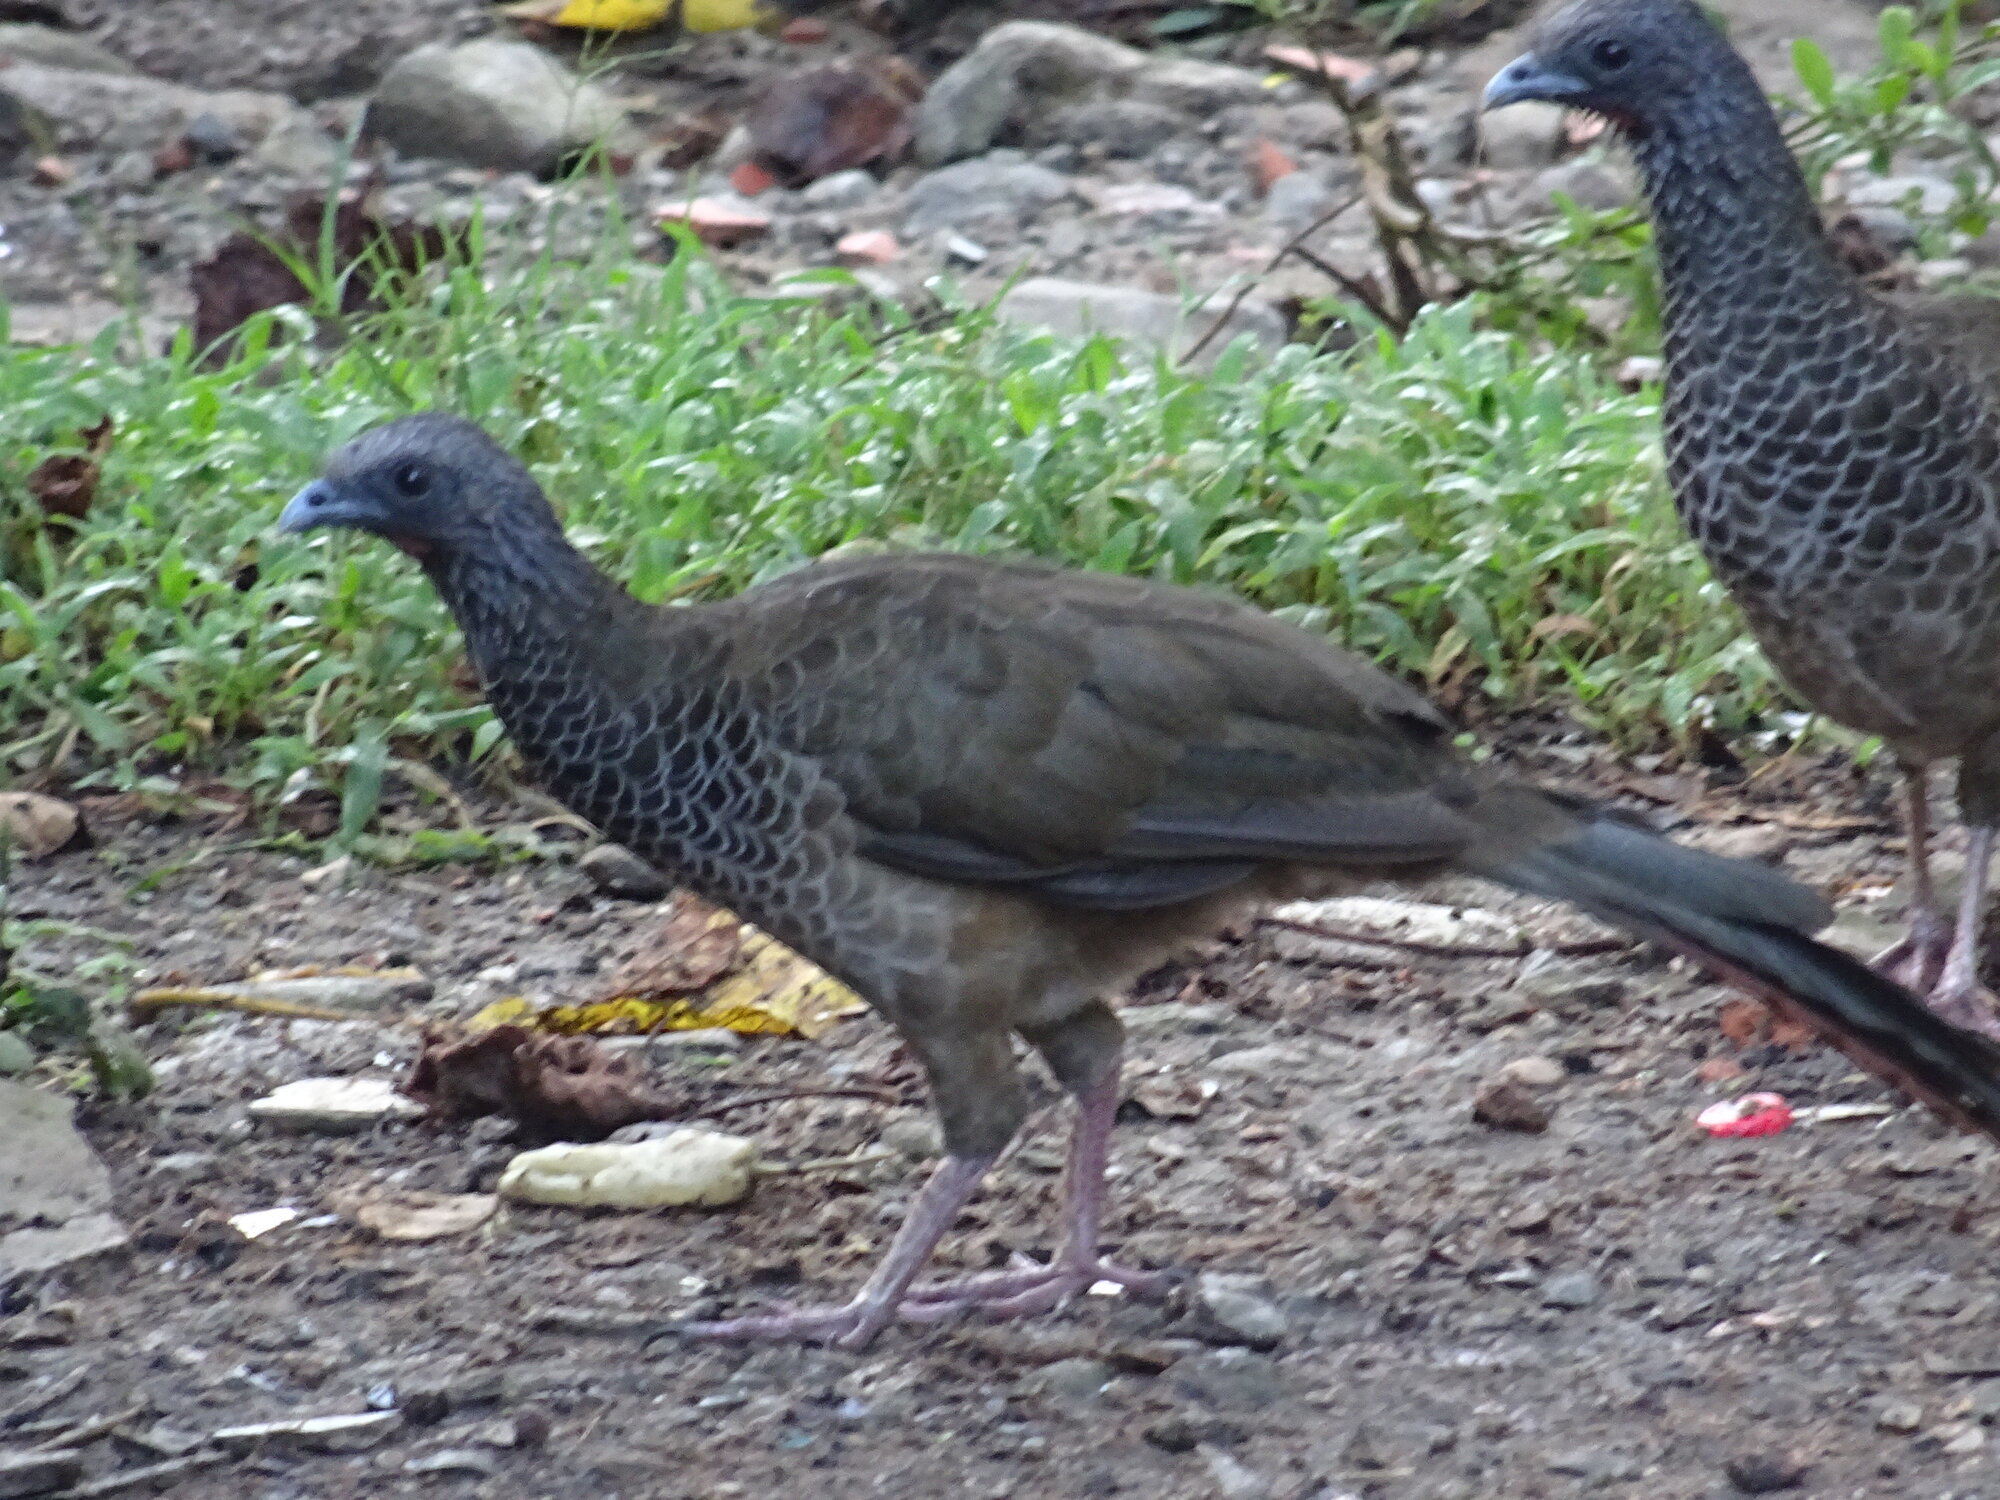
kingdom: Animalia
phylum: Chordata
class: Aves
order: Galliformes
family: Cracidae
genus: Ortalis
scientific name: Ortalis columbiana
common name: Colombian chachalaca
